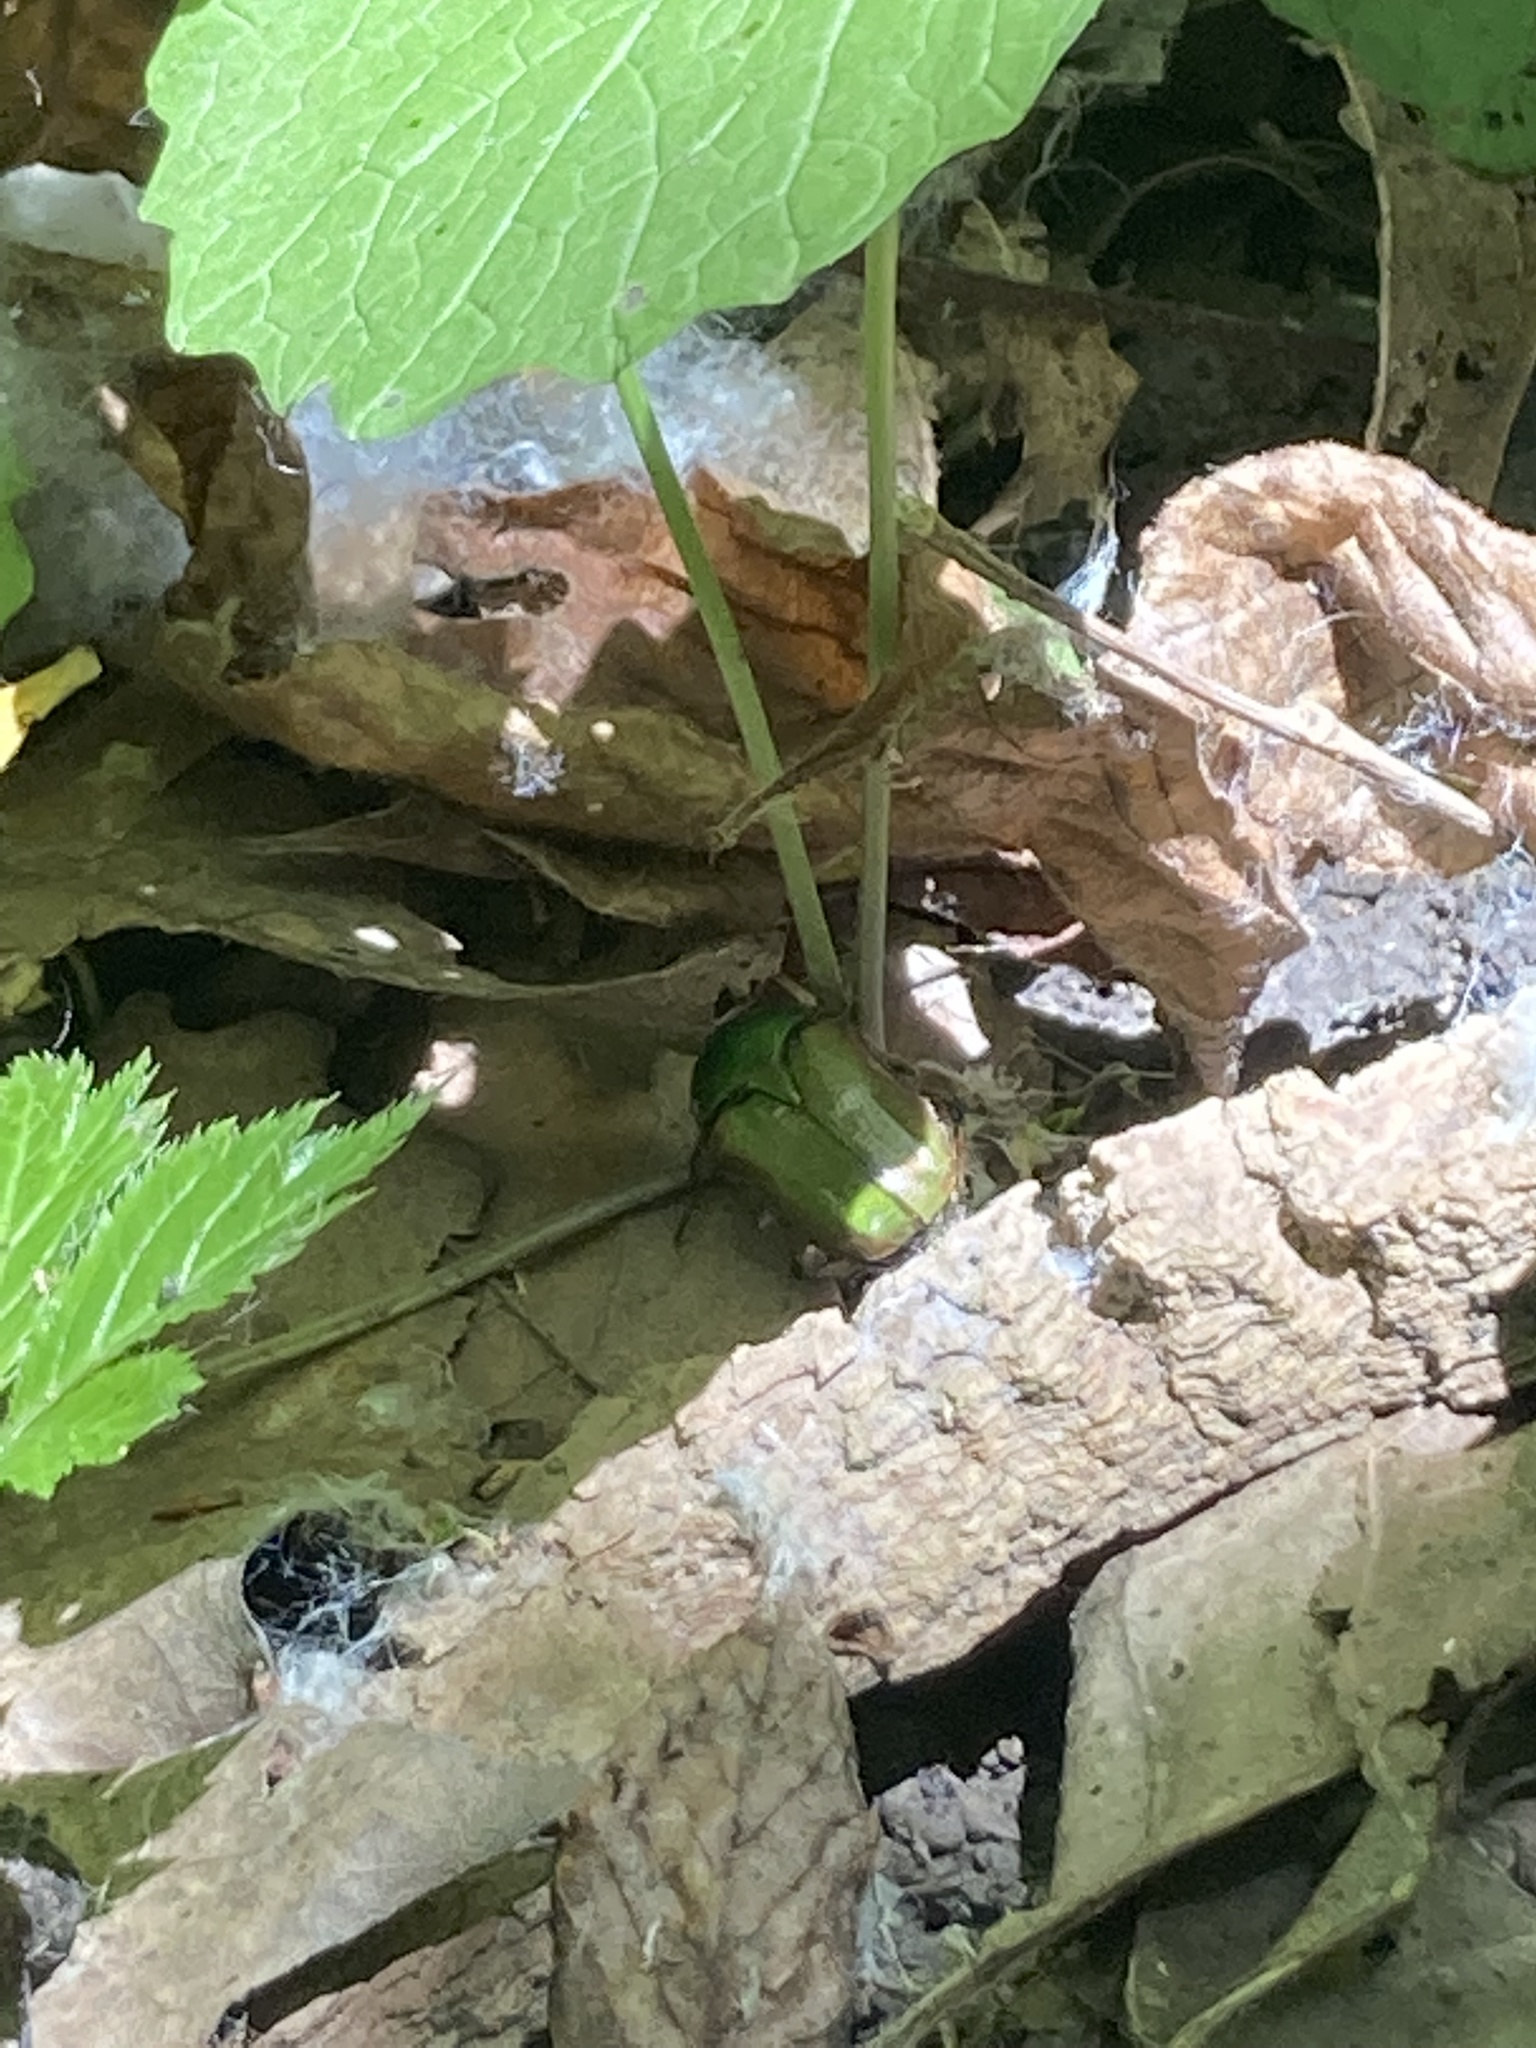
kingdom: Animalia
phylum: Arthropoda
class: Insecta
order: Coleoptera
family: Scarabaeidae
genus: Euphoria
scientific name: Euphoria fulgida
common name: Emerald euphoria
